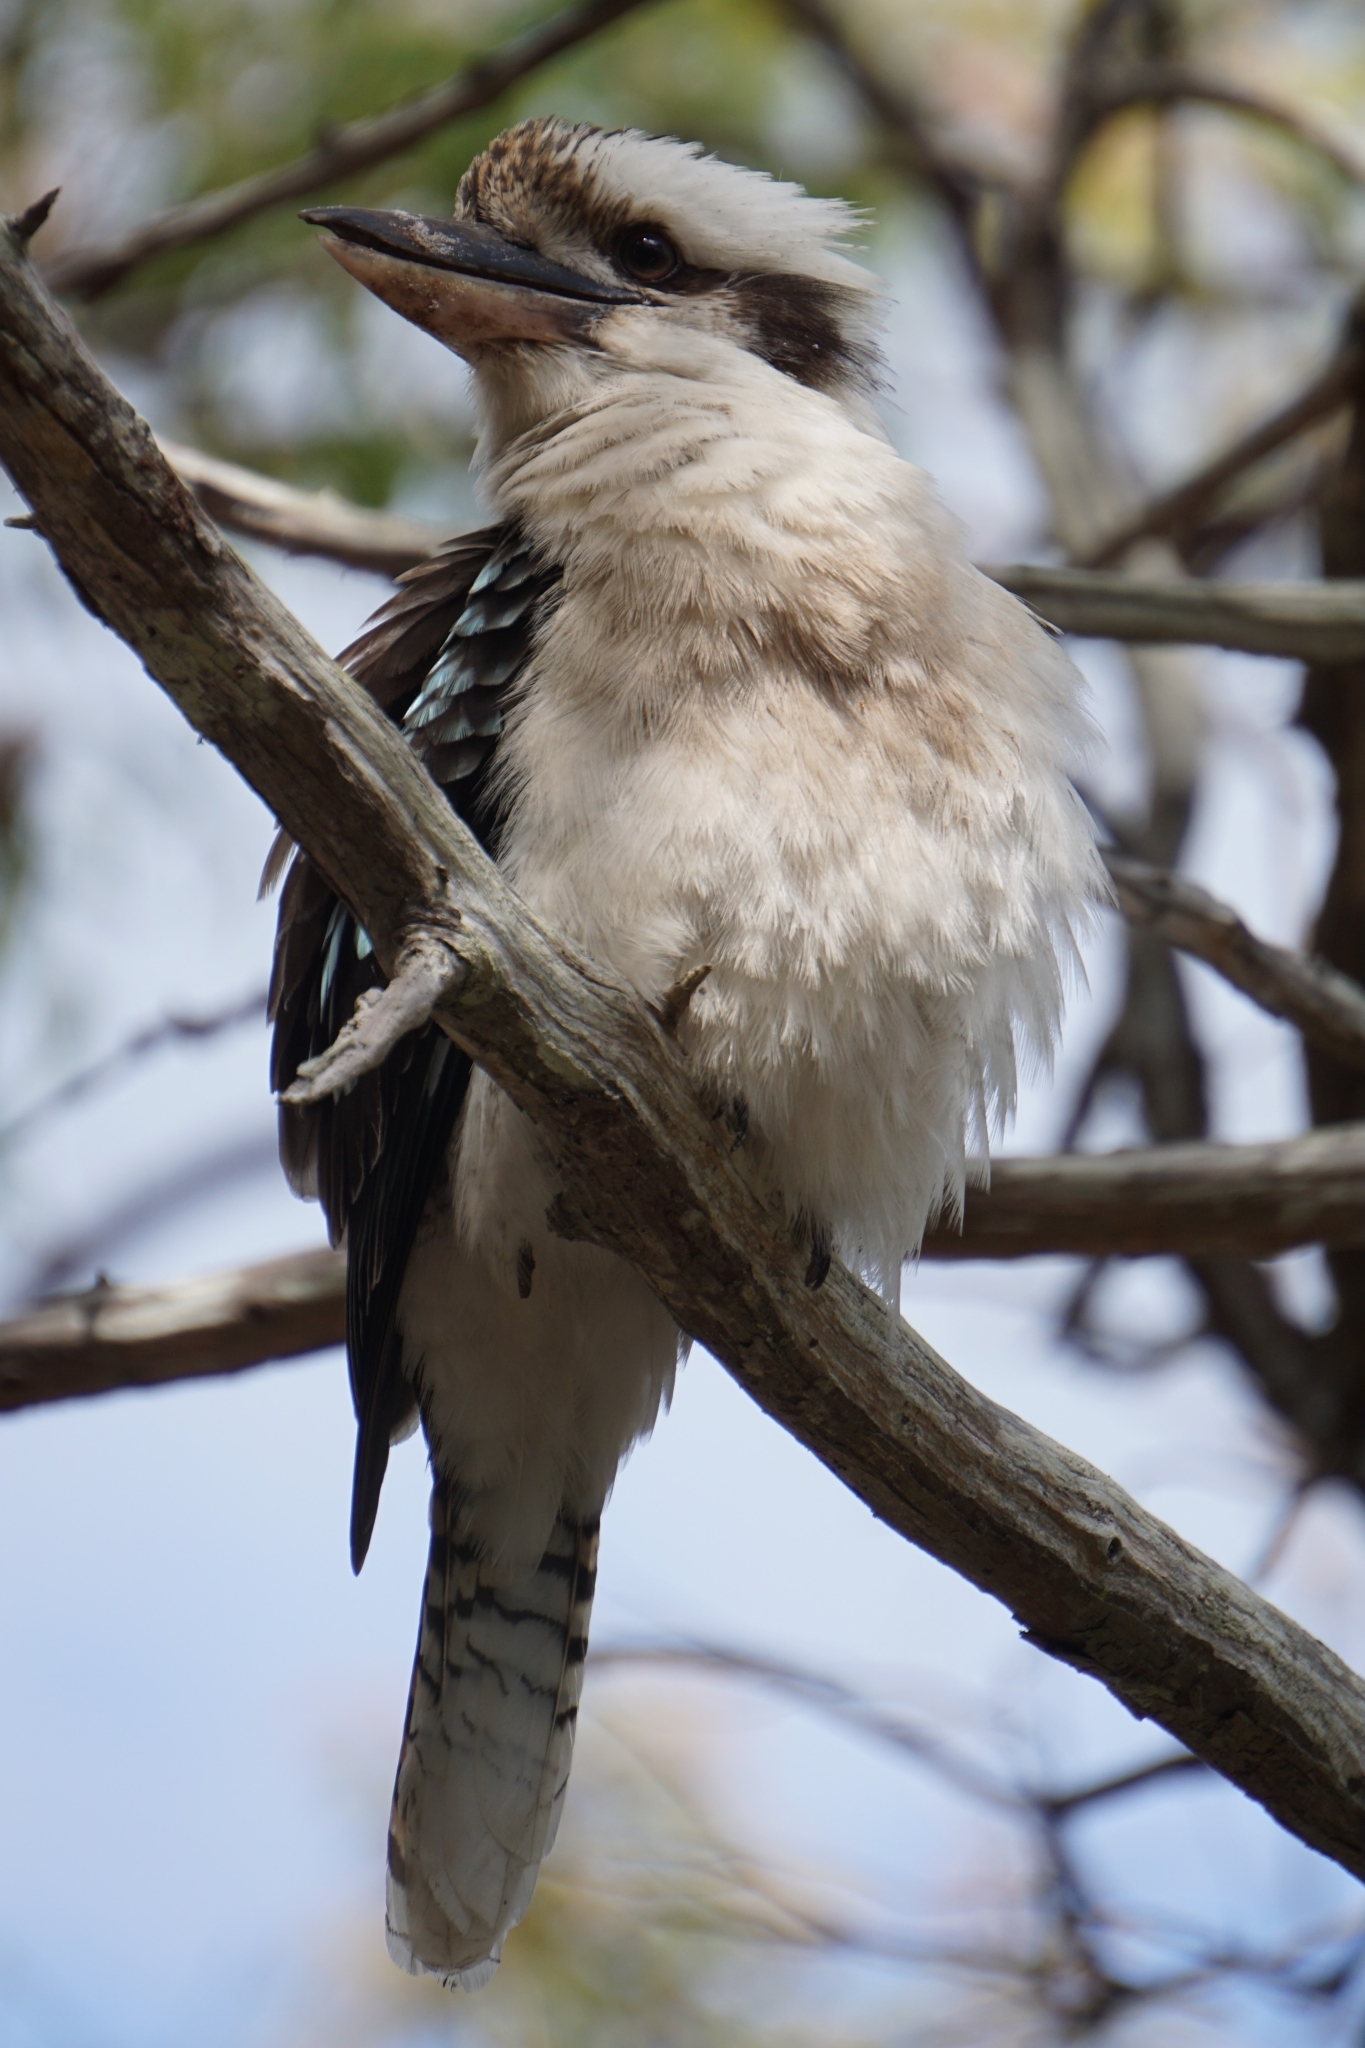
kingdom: Animalia
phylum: Chordata
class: Aves
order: Coraciiformes
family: Alcedinidae
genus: Dacelo
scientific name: Dacelo novaeguineae
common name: Laughing kookaburra
